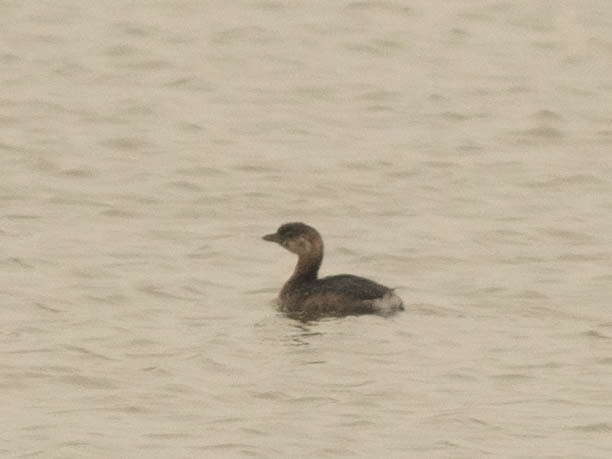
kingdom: Animalia
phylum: Chordata
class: Aves
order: Podicipediformes
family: Podicipedidae
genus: Podilymbus
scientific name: Podilymbus podiceps
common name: Pied-billed grebe
